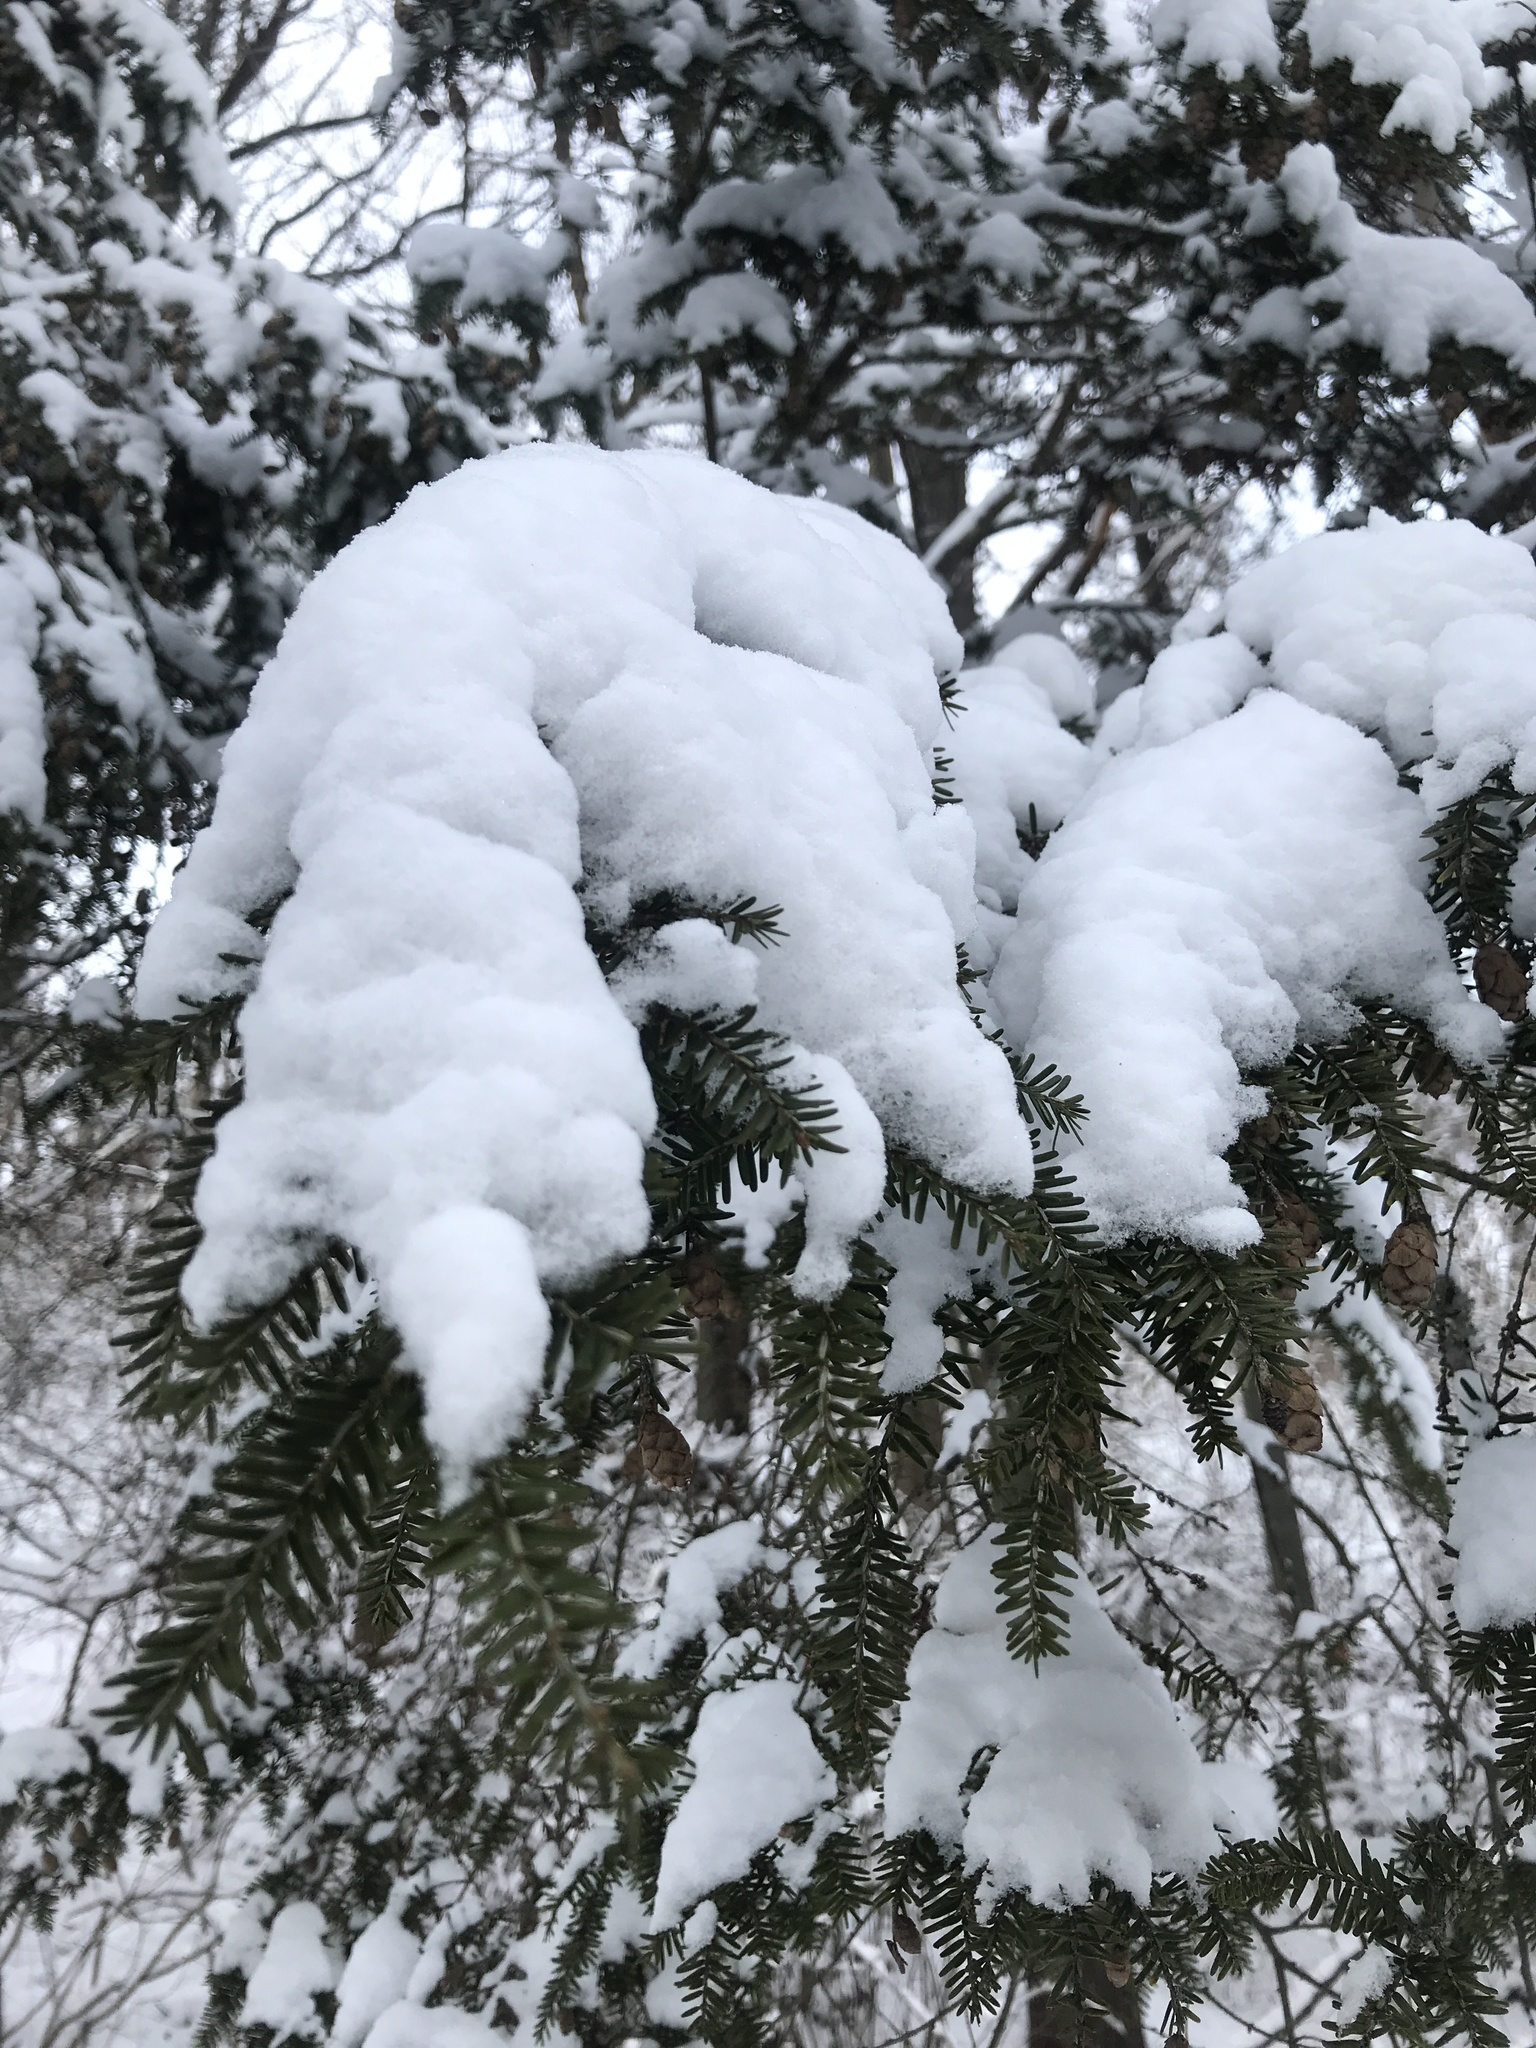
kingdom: Plantae
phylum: Tracheophyta
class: Pinopsida
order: Pinales
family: Pinaceae
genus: Tsuga
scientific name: Tsuga canadensis
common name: Eastern hemlock
